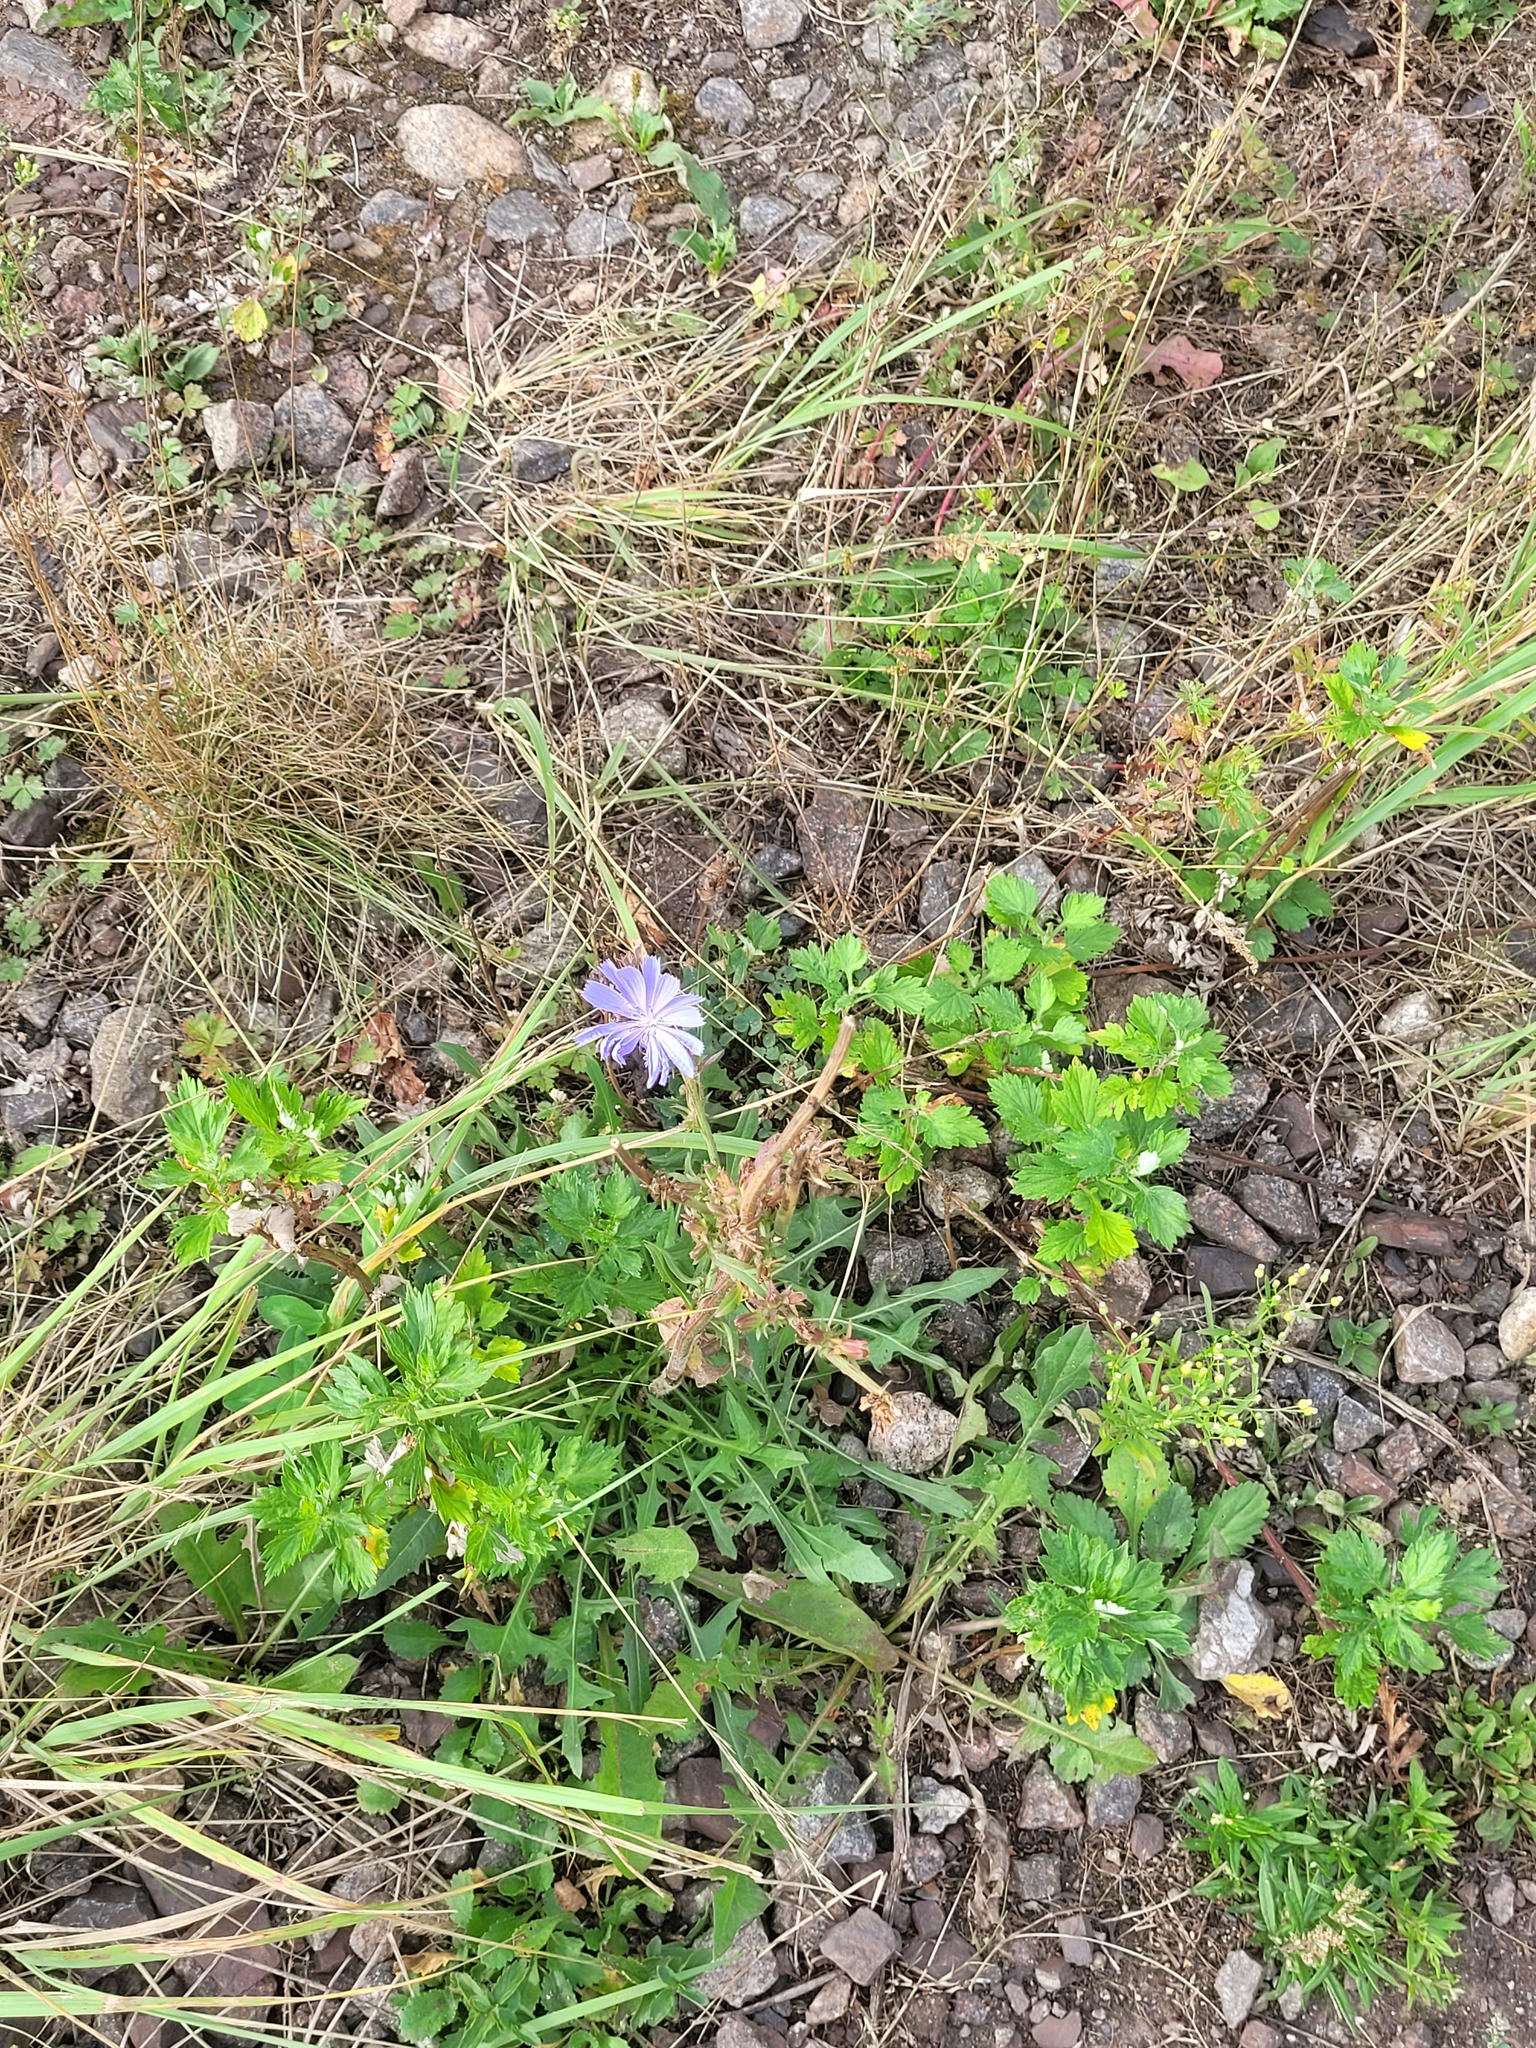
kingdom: Plantae
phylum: Tracheophyta
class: Magnoliopsida
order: Asterales
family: Asteraceae
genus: Cichorium
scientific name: Cichorium intybus
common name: Chicory
